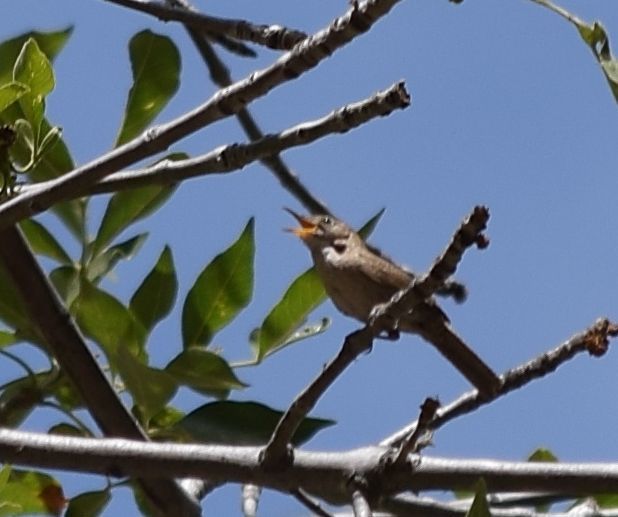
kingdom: Animalia
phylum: Chordata
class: Aves
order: Passeriformes
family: Troglodytidae
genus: Troglodytes
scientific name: Troglodytes aedon
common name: House wren
